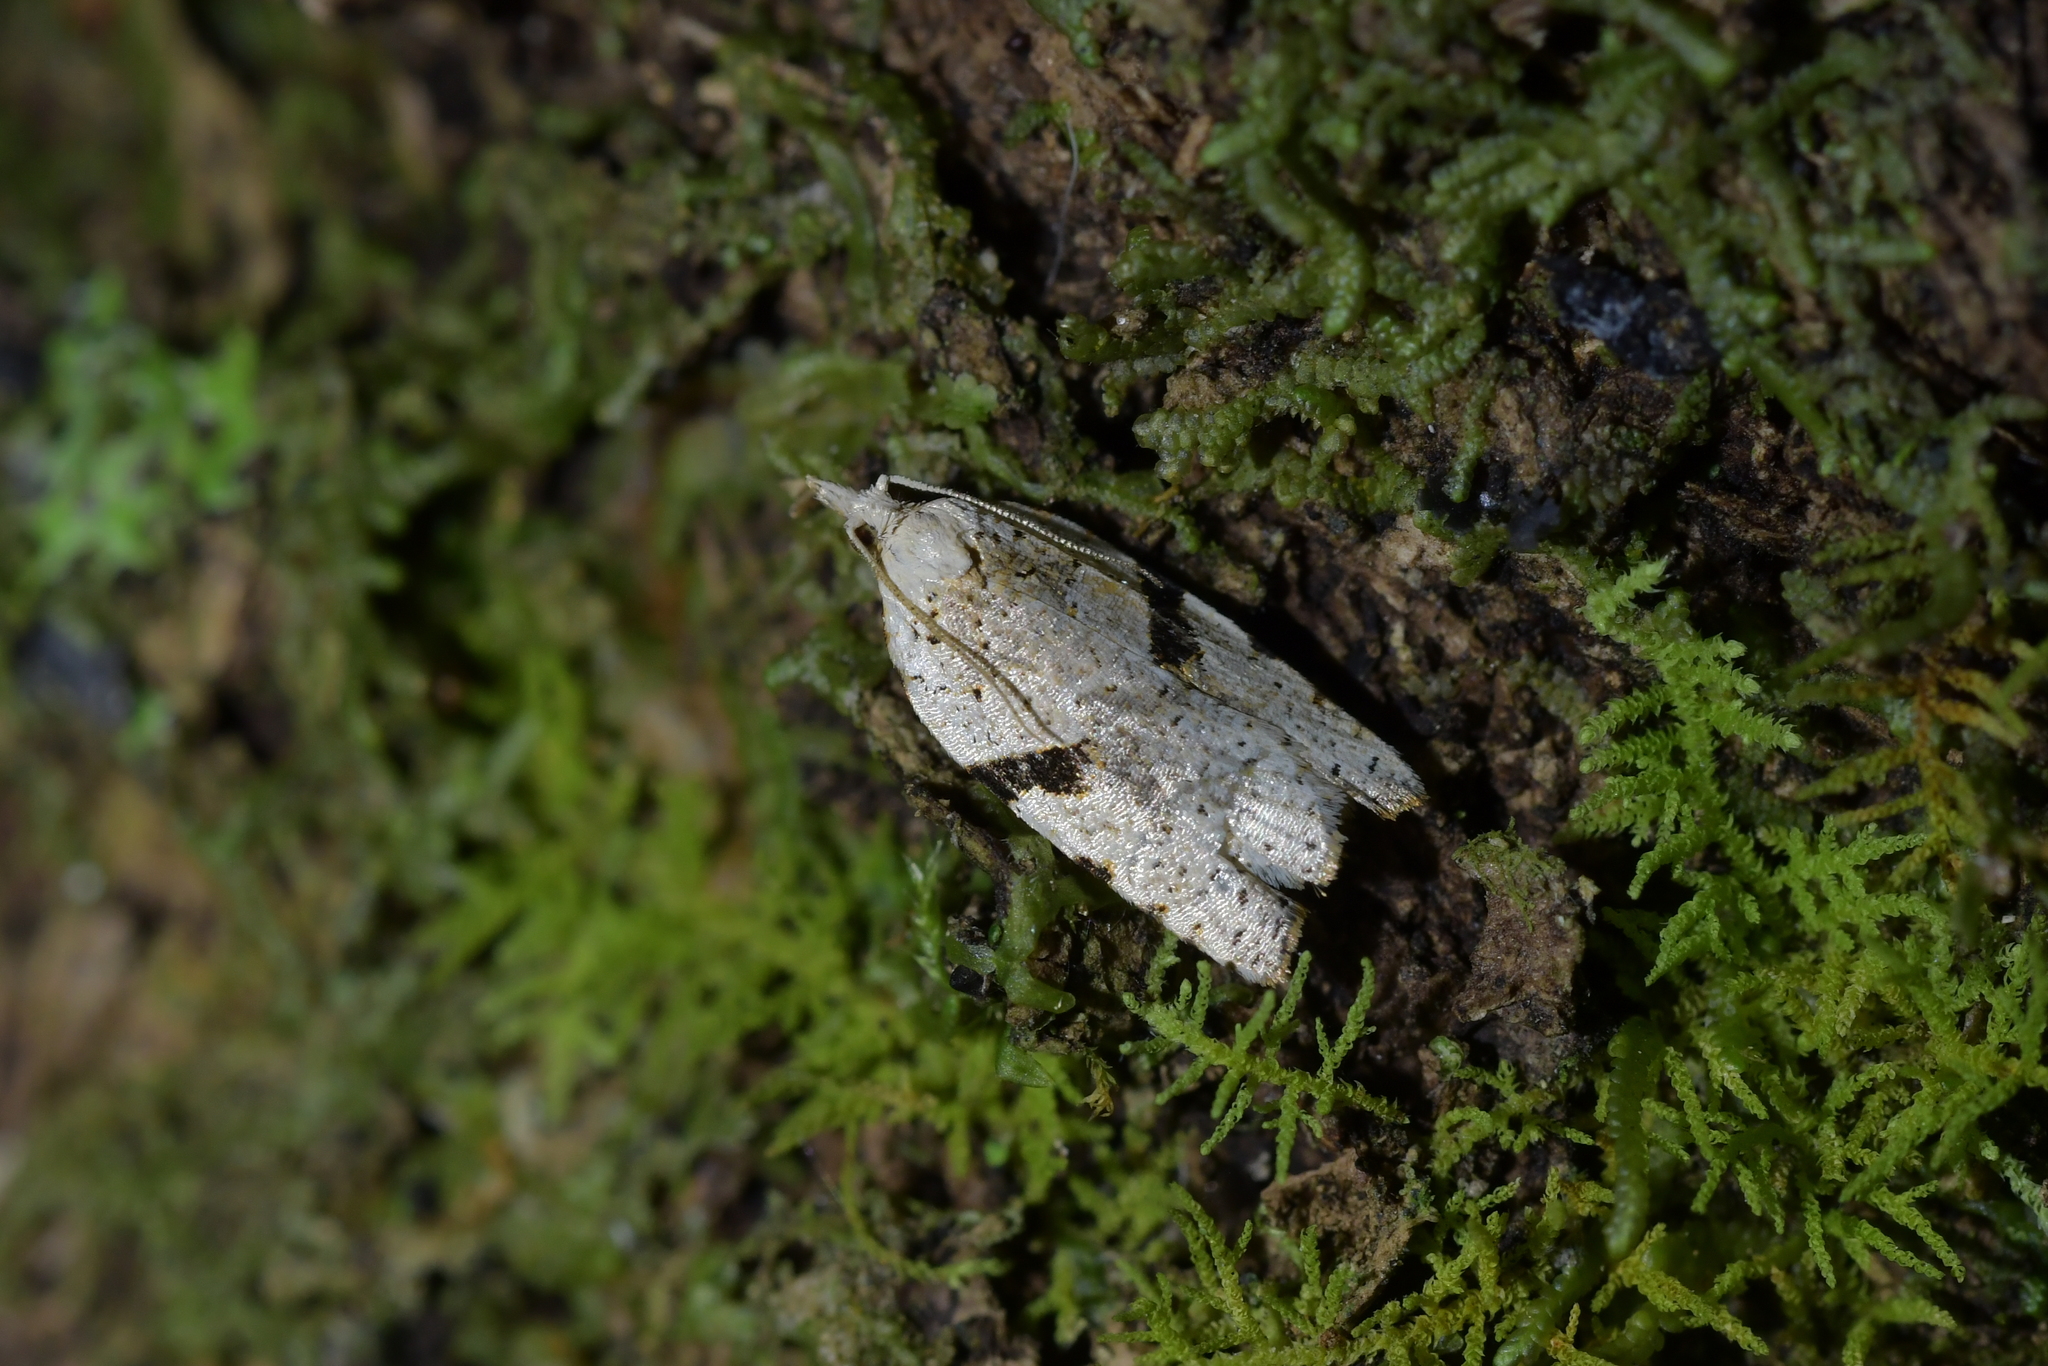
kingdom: Animalia
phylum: Arthropoda
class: Insecta
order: Lepidoptera
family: Tortricidae
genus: Leucotenes
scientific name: Leucotenes coprosmae
